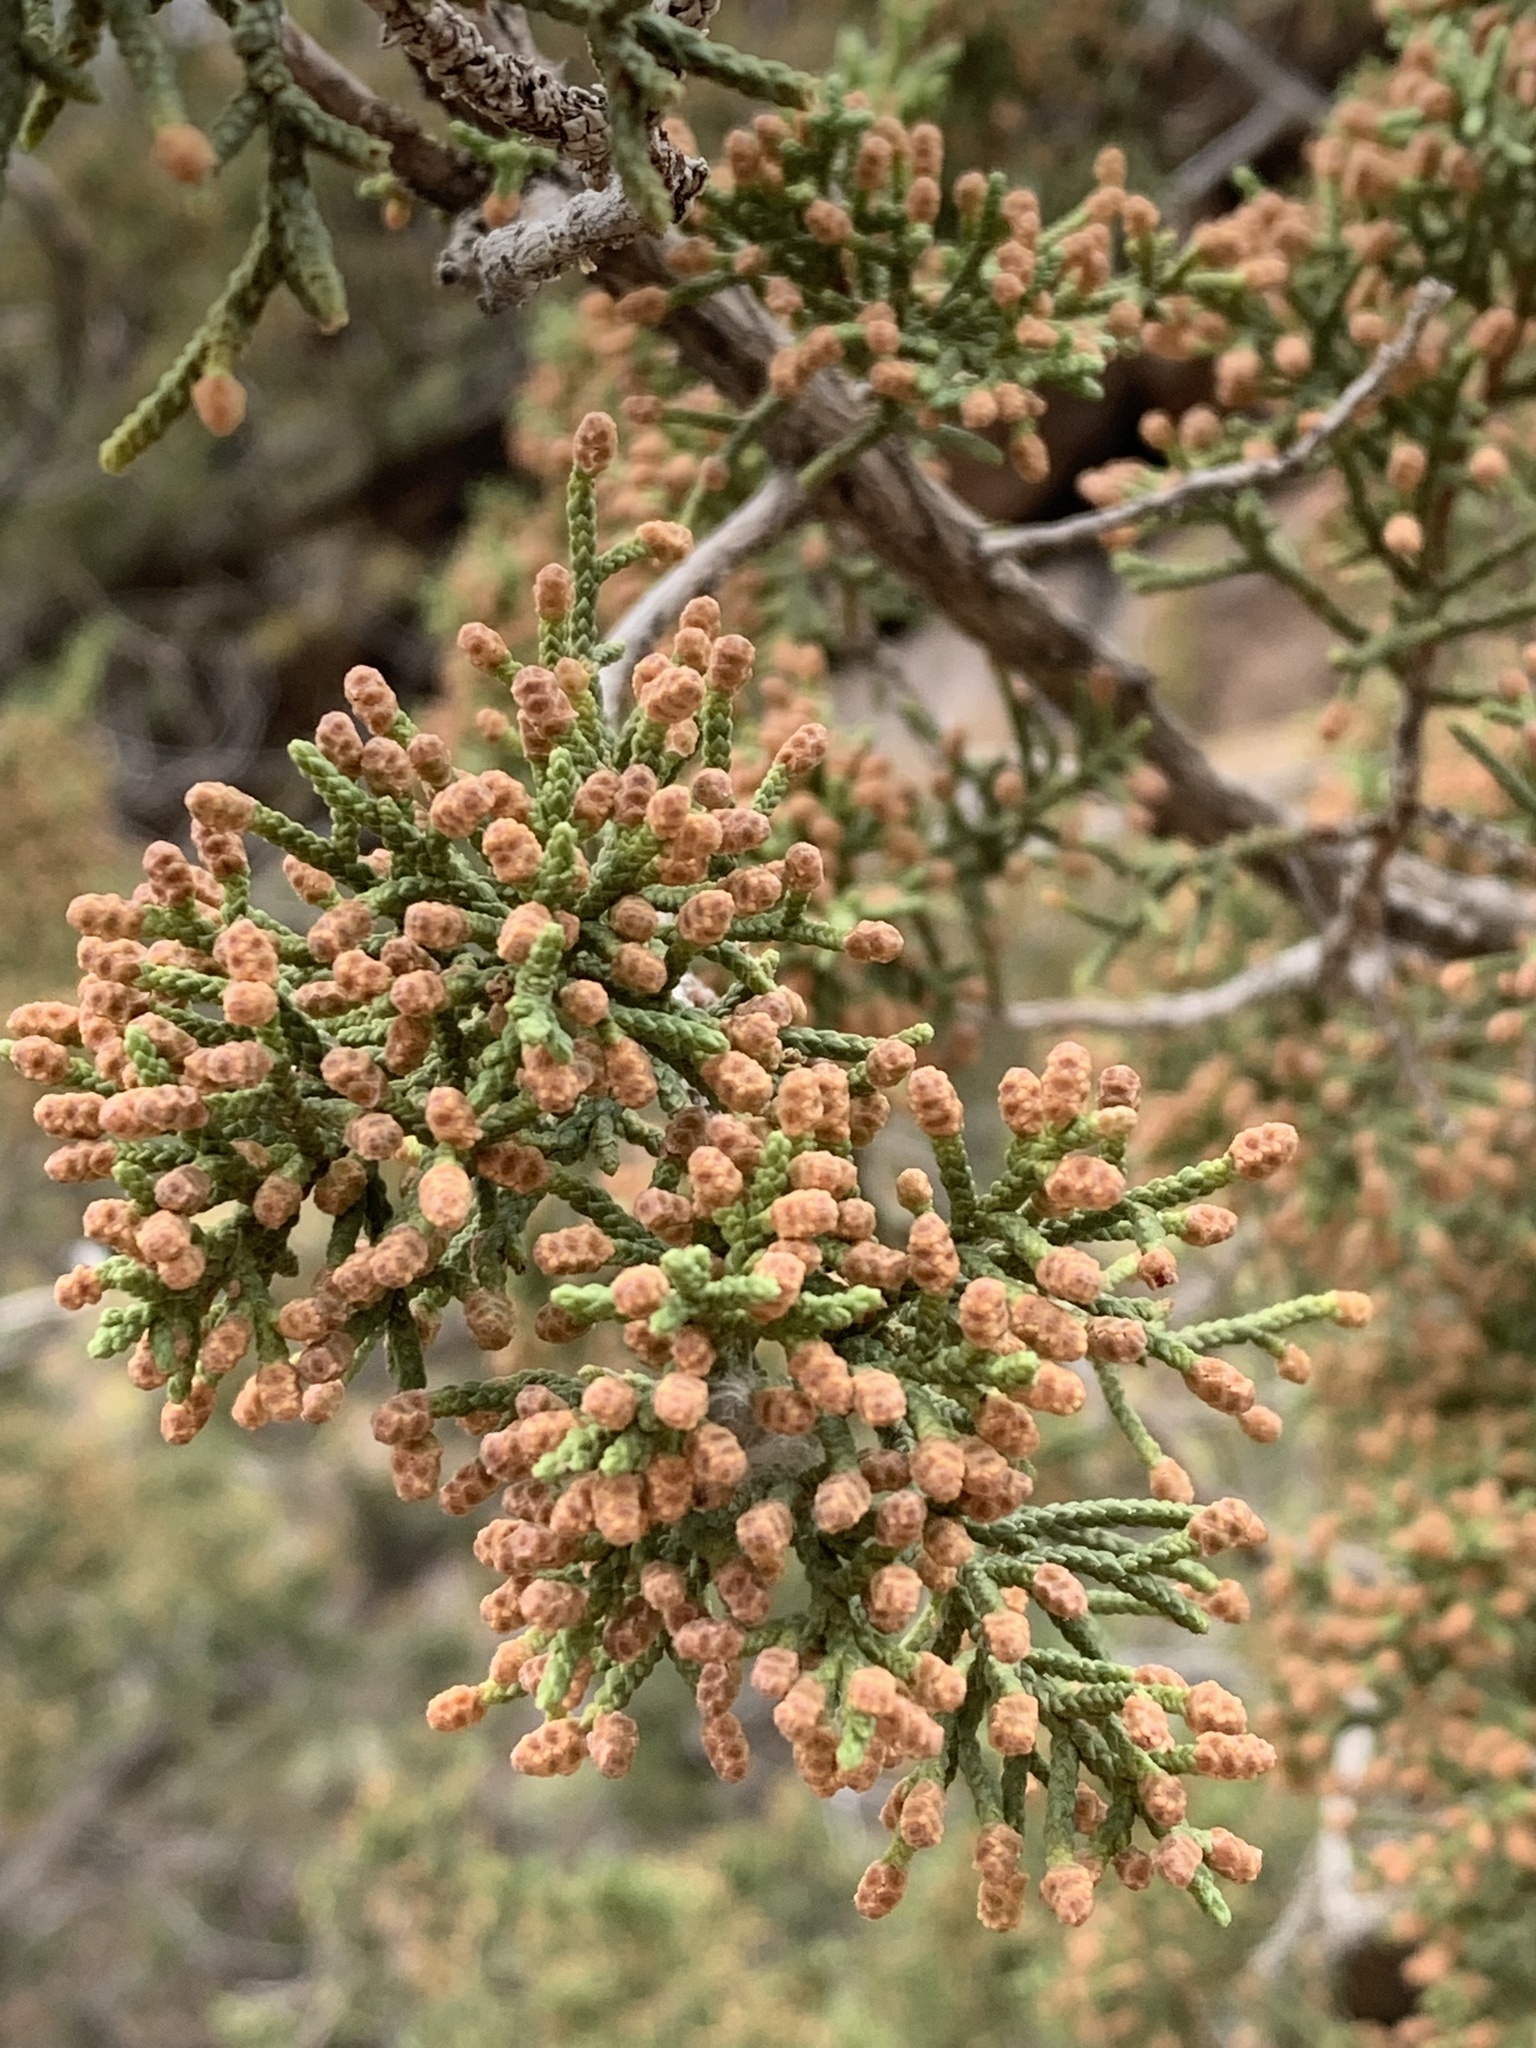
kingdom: Plantae
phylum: Tracheophyta
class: Pinopsida
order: Pinales
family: Cupressaceae
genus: Juniperus
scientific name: Juniperus arizonica
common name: Arizona juniper
